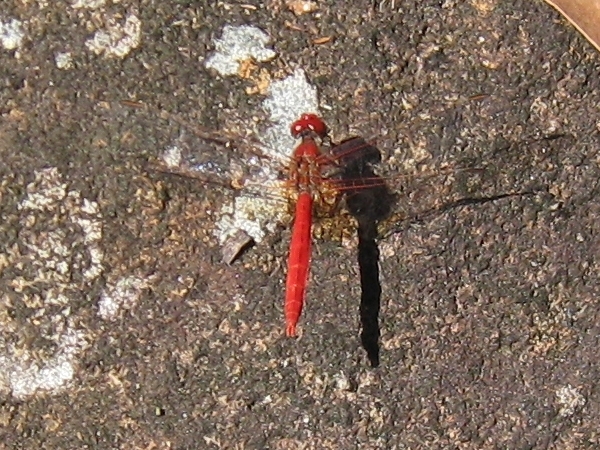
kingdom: Animalia
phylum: Arthropoda
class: Insecta
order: Odonata
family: Libellulidae
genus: Diplacodes
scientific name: Diplacodes haematodes
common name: Scarlet percher
